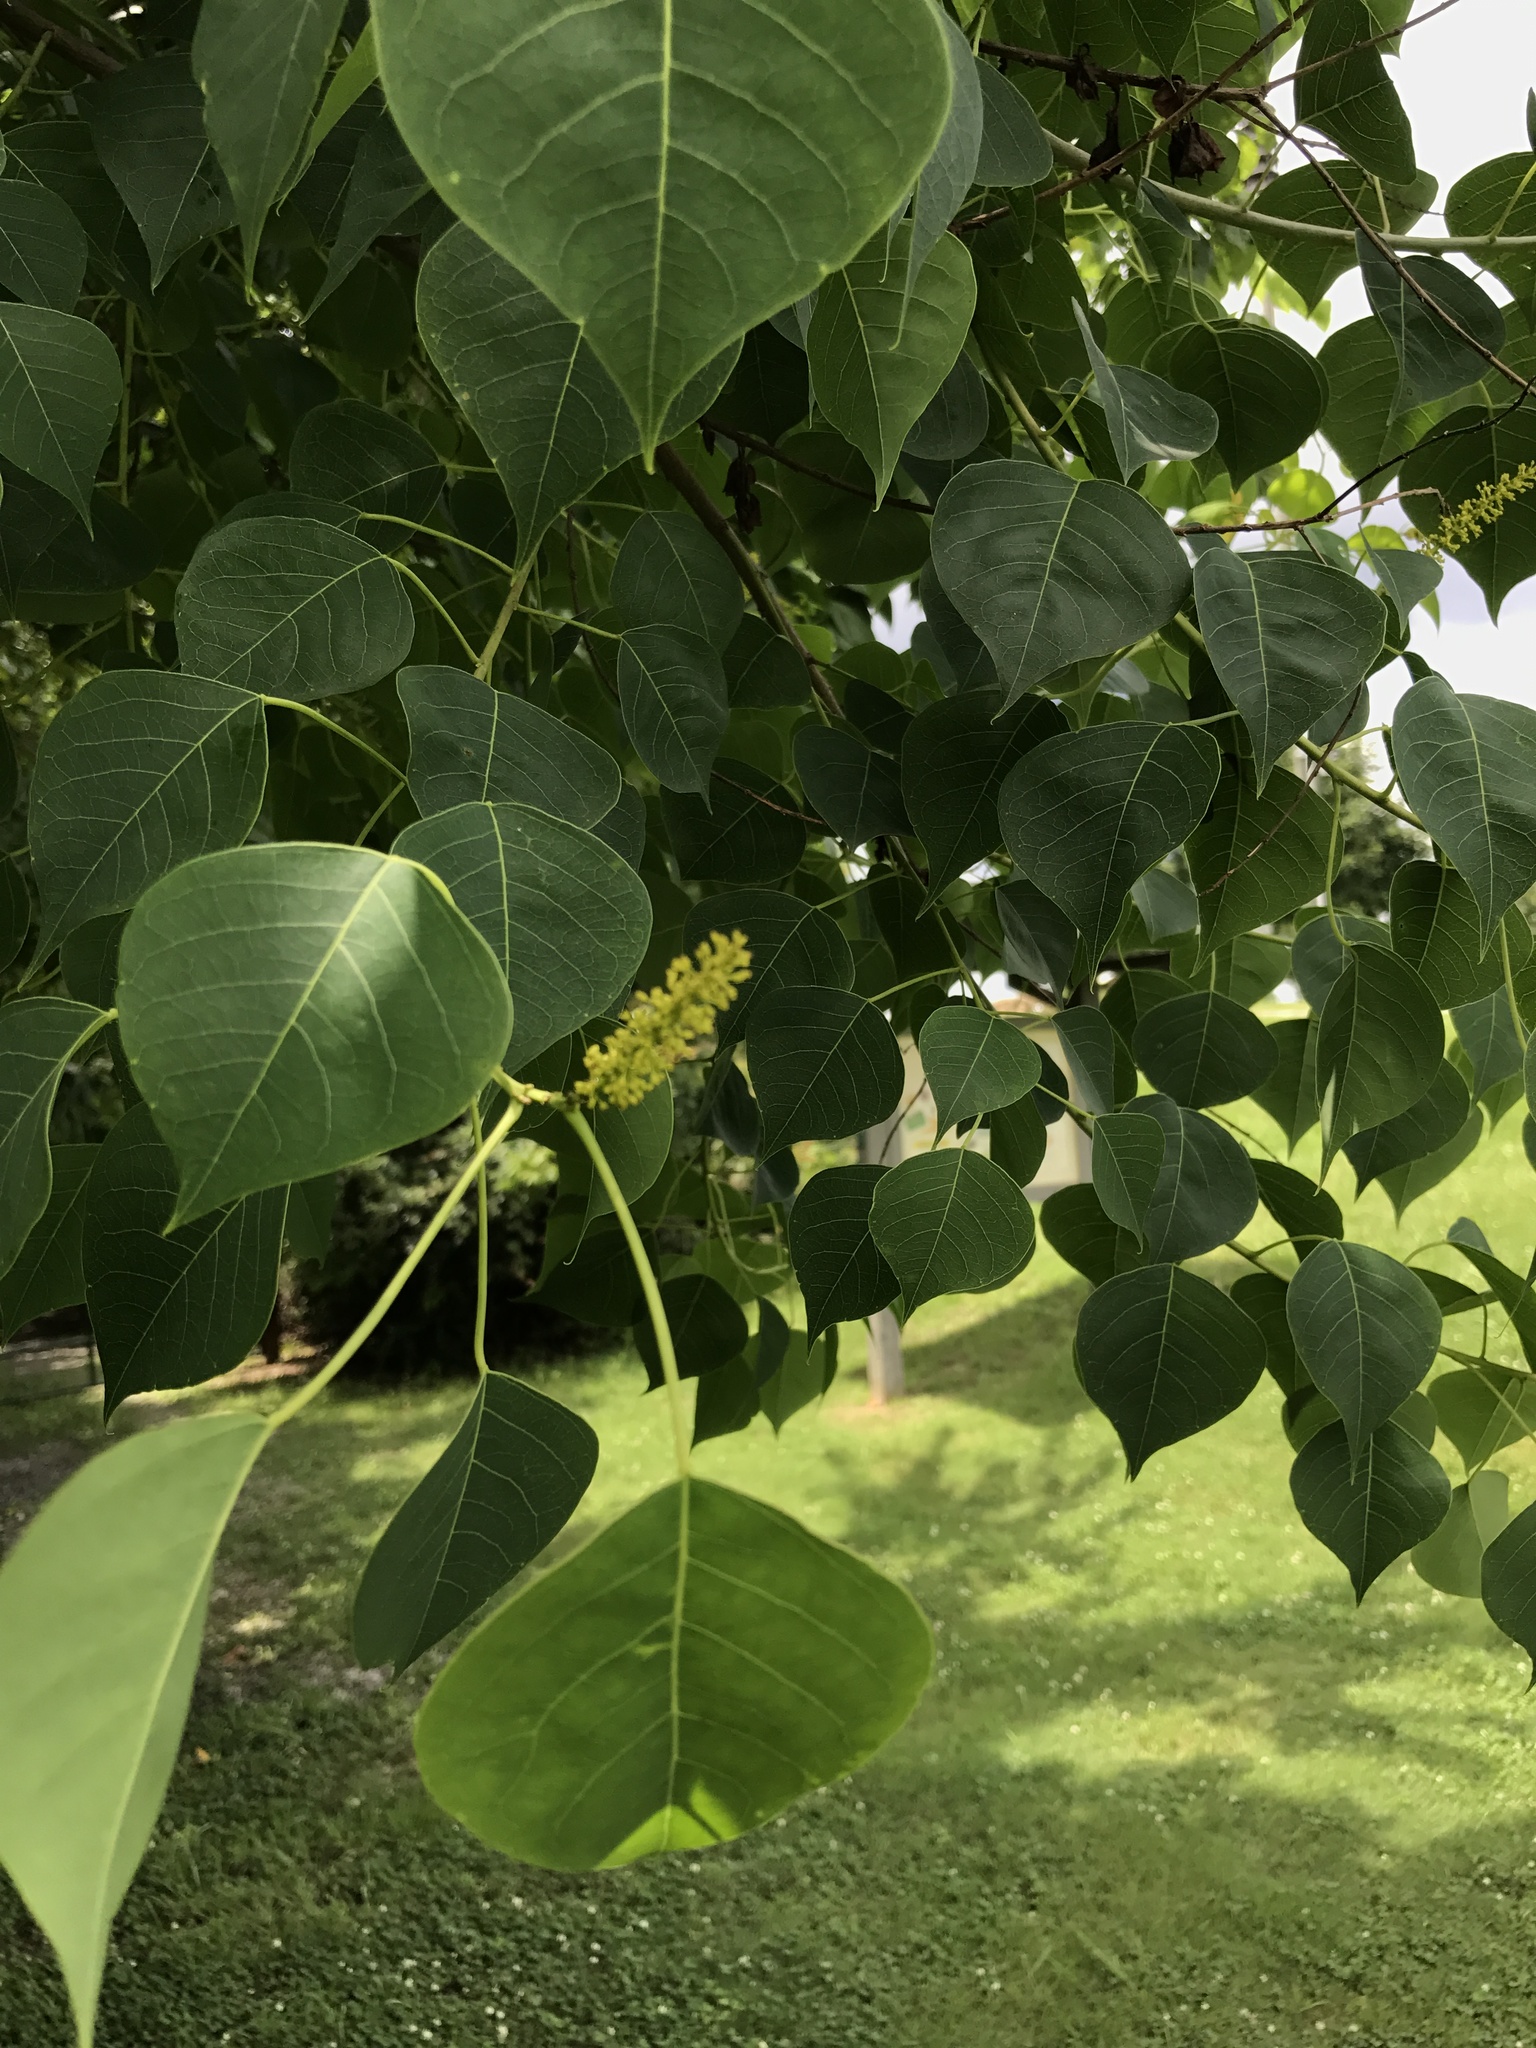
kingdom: Plantae
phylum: Tracheophyta
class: Magnoliopsida
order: Malpighiales
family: Euphorbiaceae
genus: Triadica
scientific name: Triadica sebifera
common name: Chinese tallow
